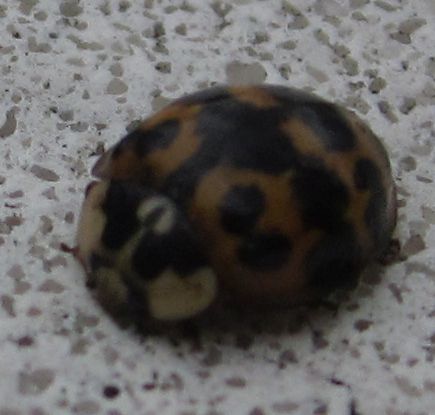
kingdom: Animalia
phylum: Arthropoda
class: Insecta
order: Coleoptera
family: Coccinellidae
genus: Harmonia
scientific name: Harmonia axyridis
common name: Harlequin ladybird
